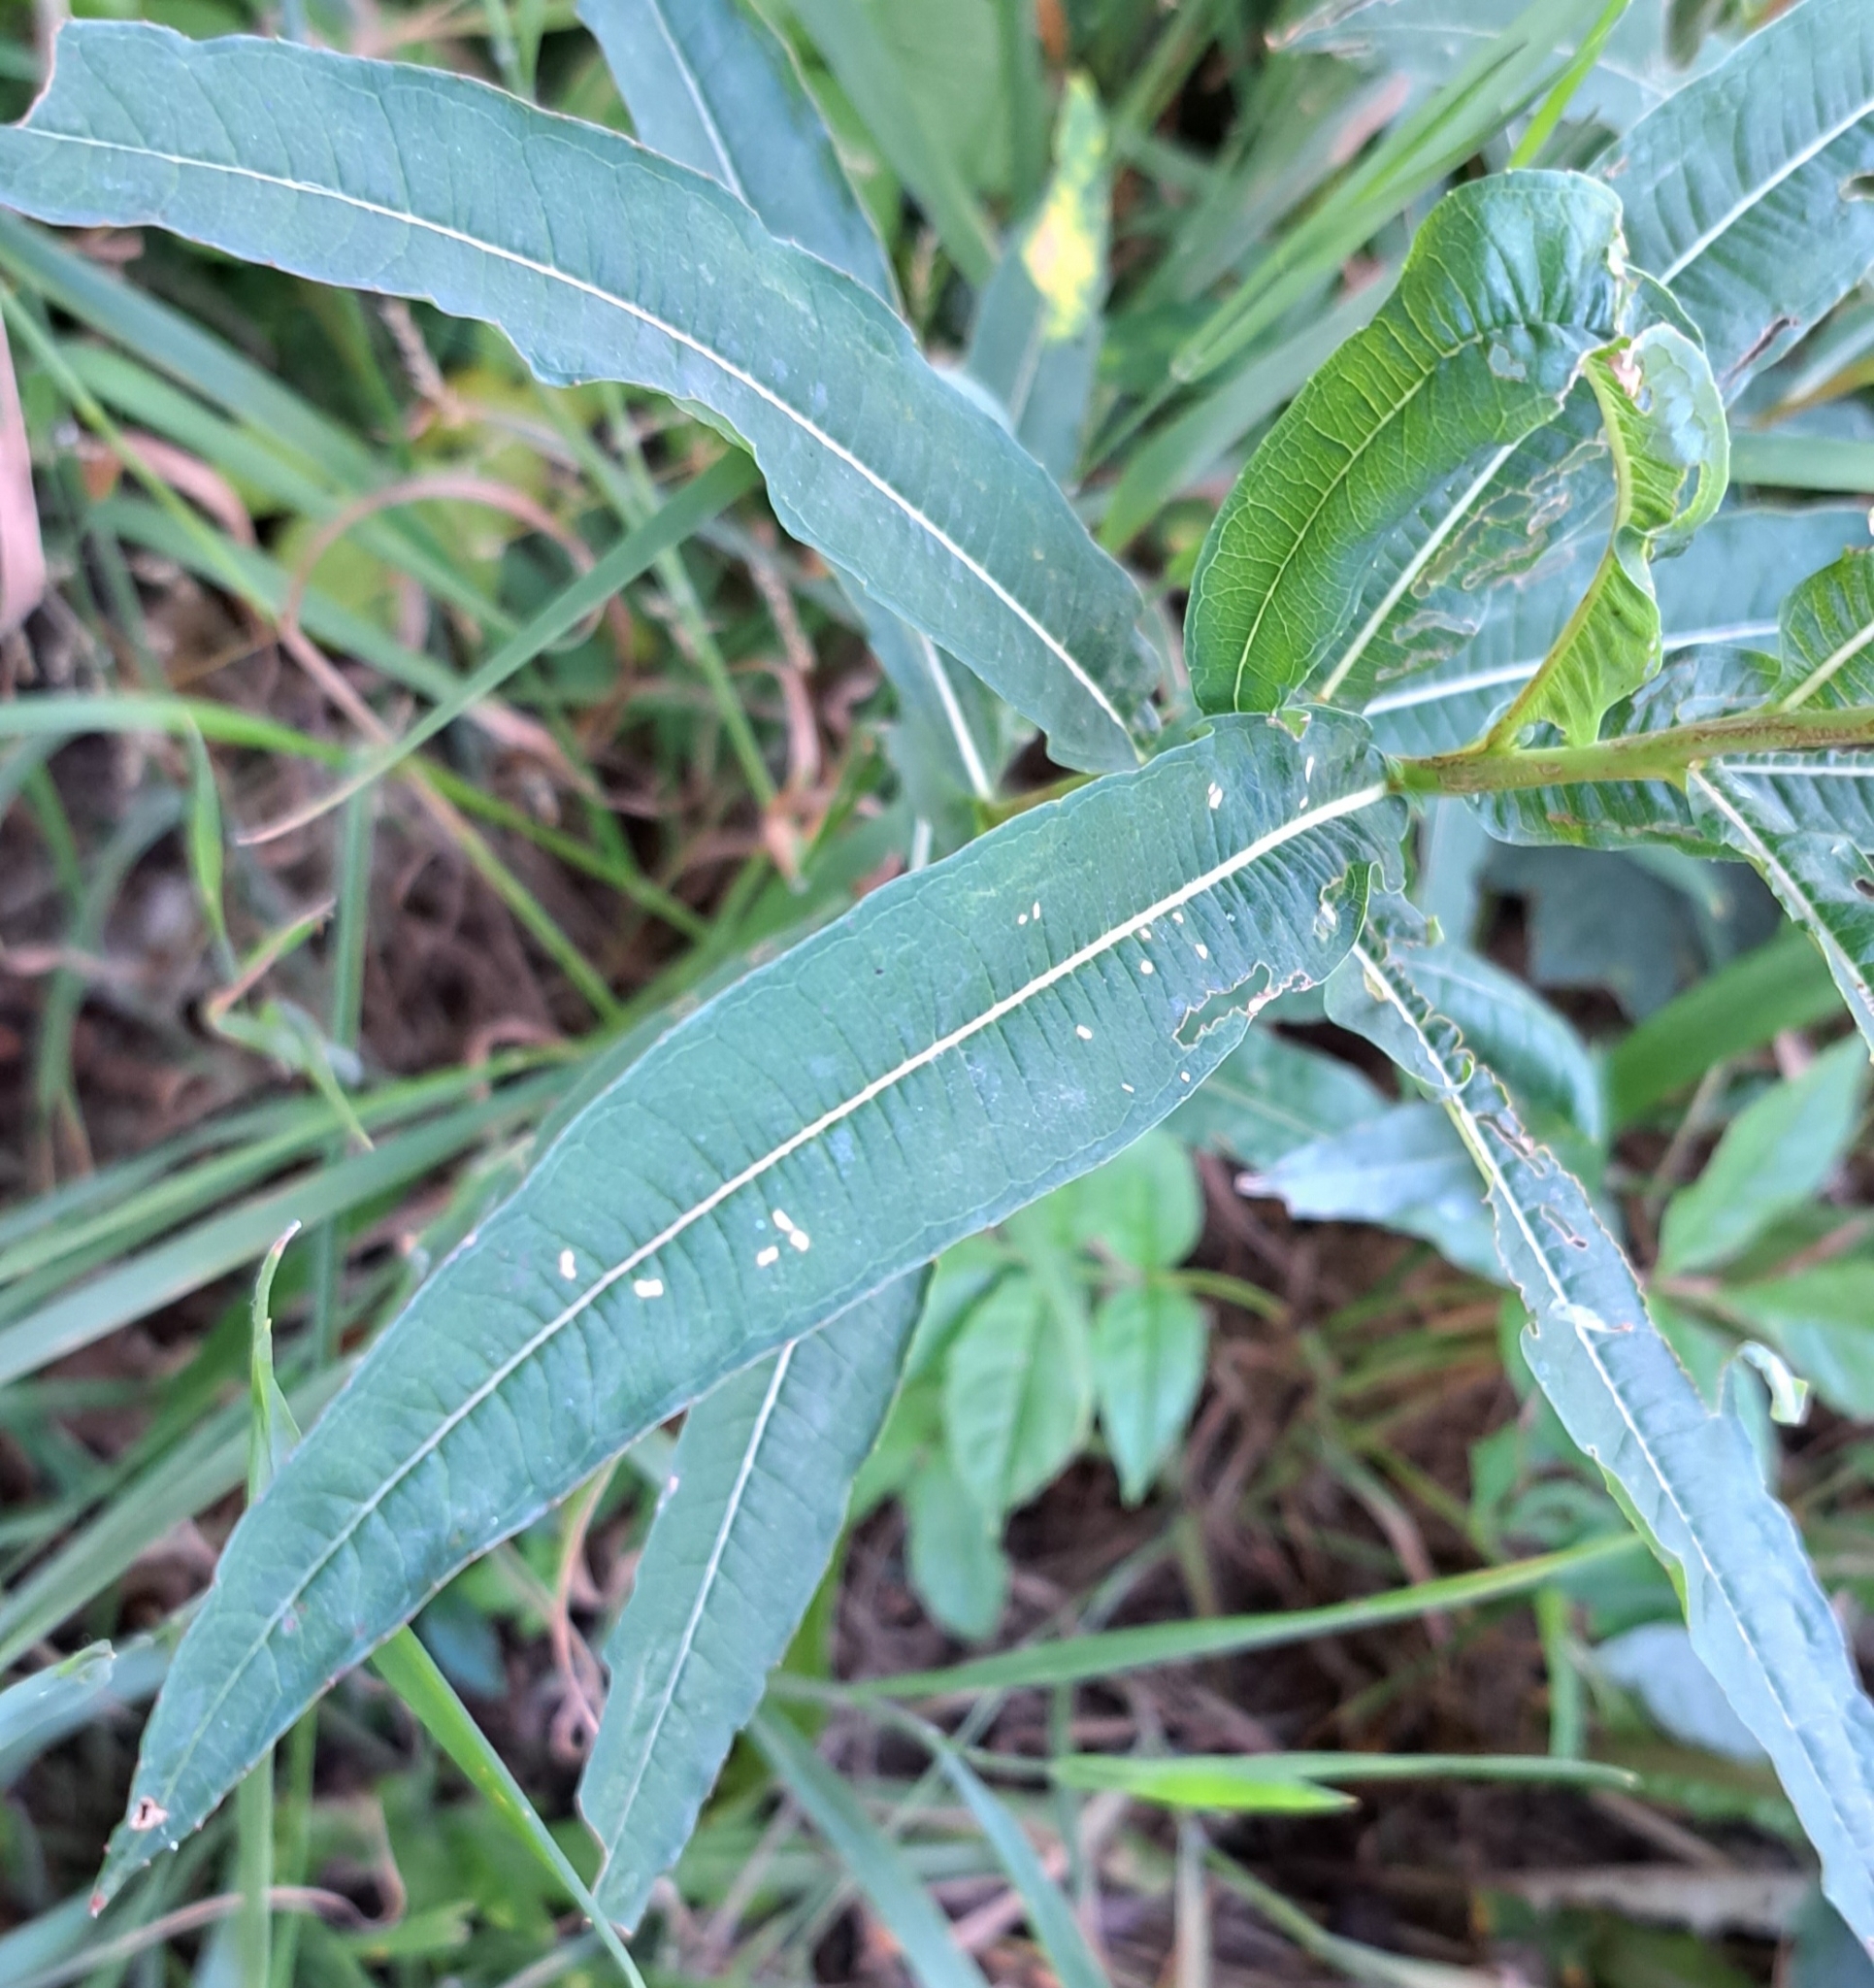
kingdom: Plantae
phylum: Tracheophyta
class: Magnoliopsida
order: Myrtales
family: Onagraceae
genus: Chamaenerion
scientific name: Chamaenerion angustifolium
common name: Fireweed
